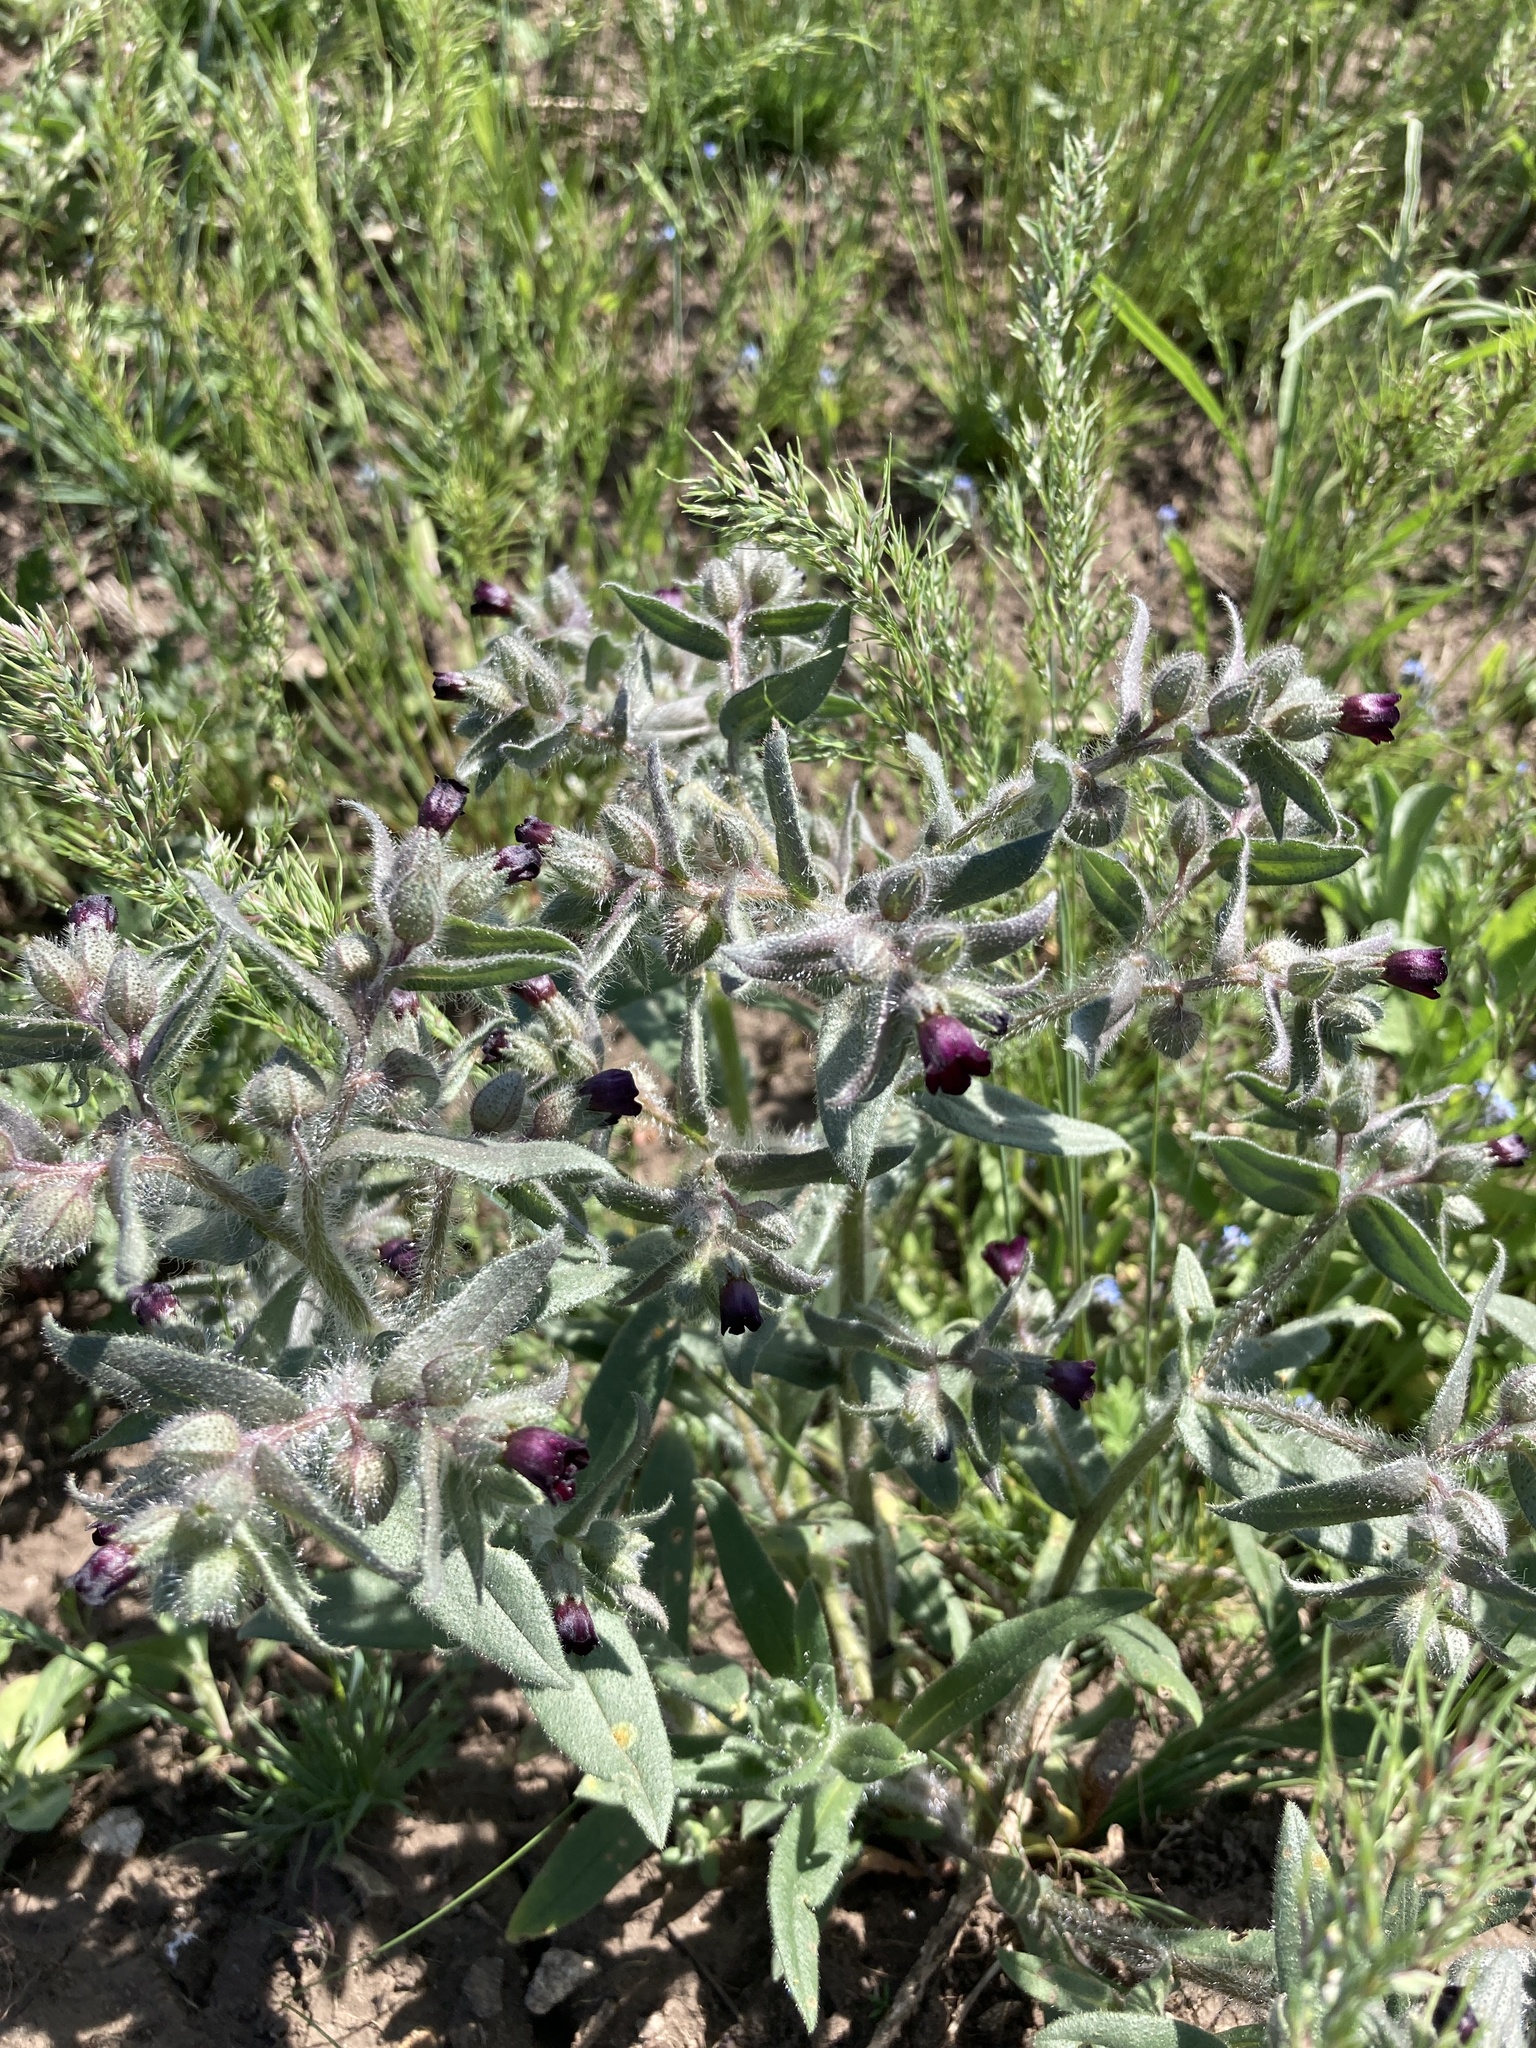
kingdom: Plantae
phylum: Tracheophyta
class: Magnoliopsida
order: Boraginales
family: Boraginaceae
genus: Nonea
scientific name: Nonea pulla
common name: Brown nonea
